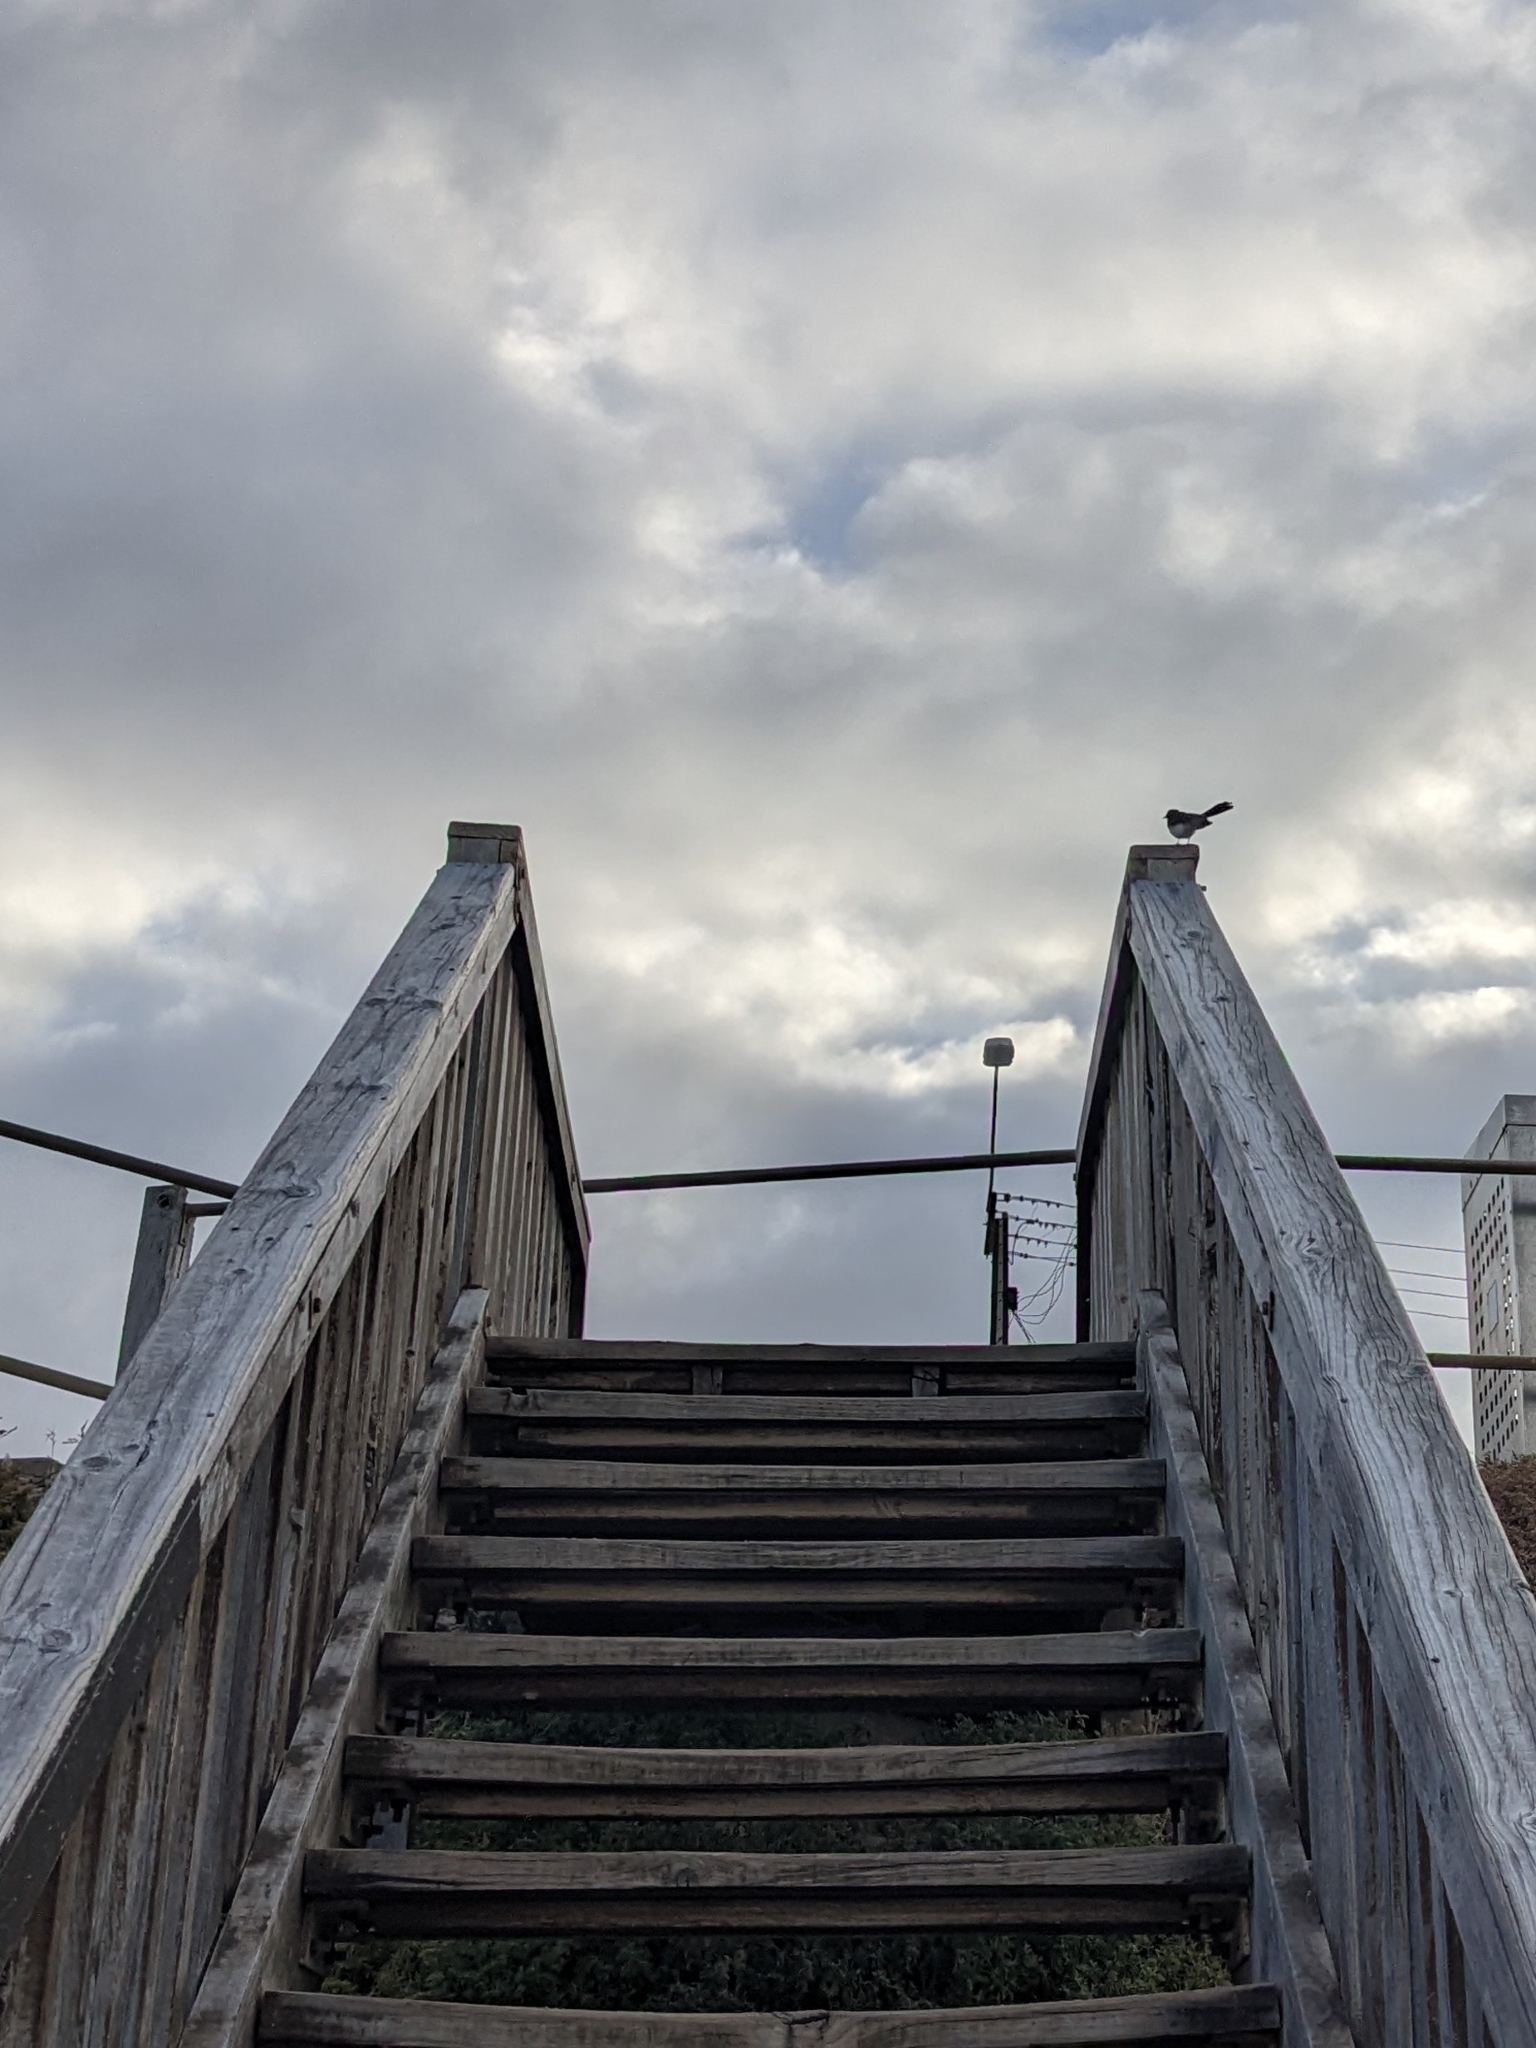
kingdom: Animalia
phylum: Chordata
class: Aves
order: Passeriformes
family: Rhipiduridae
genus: Rhipidura
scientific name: Rhipidura leucophrys
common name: Willie wagtail
